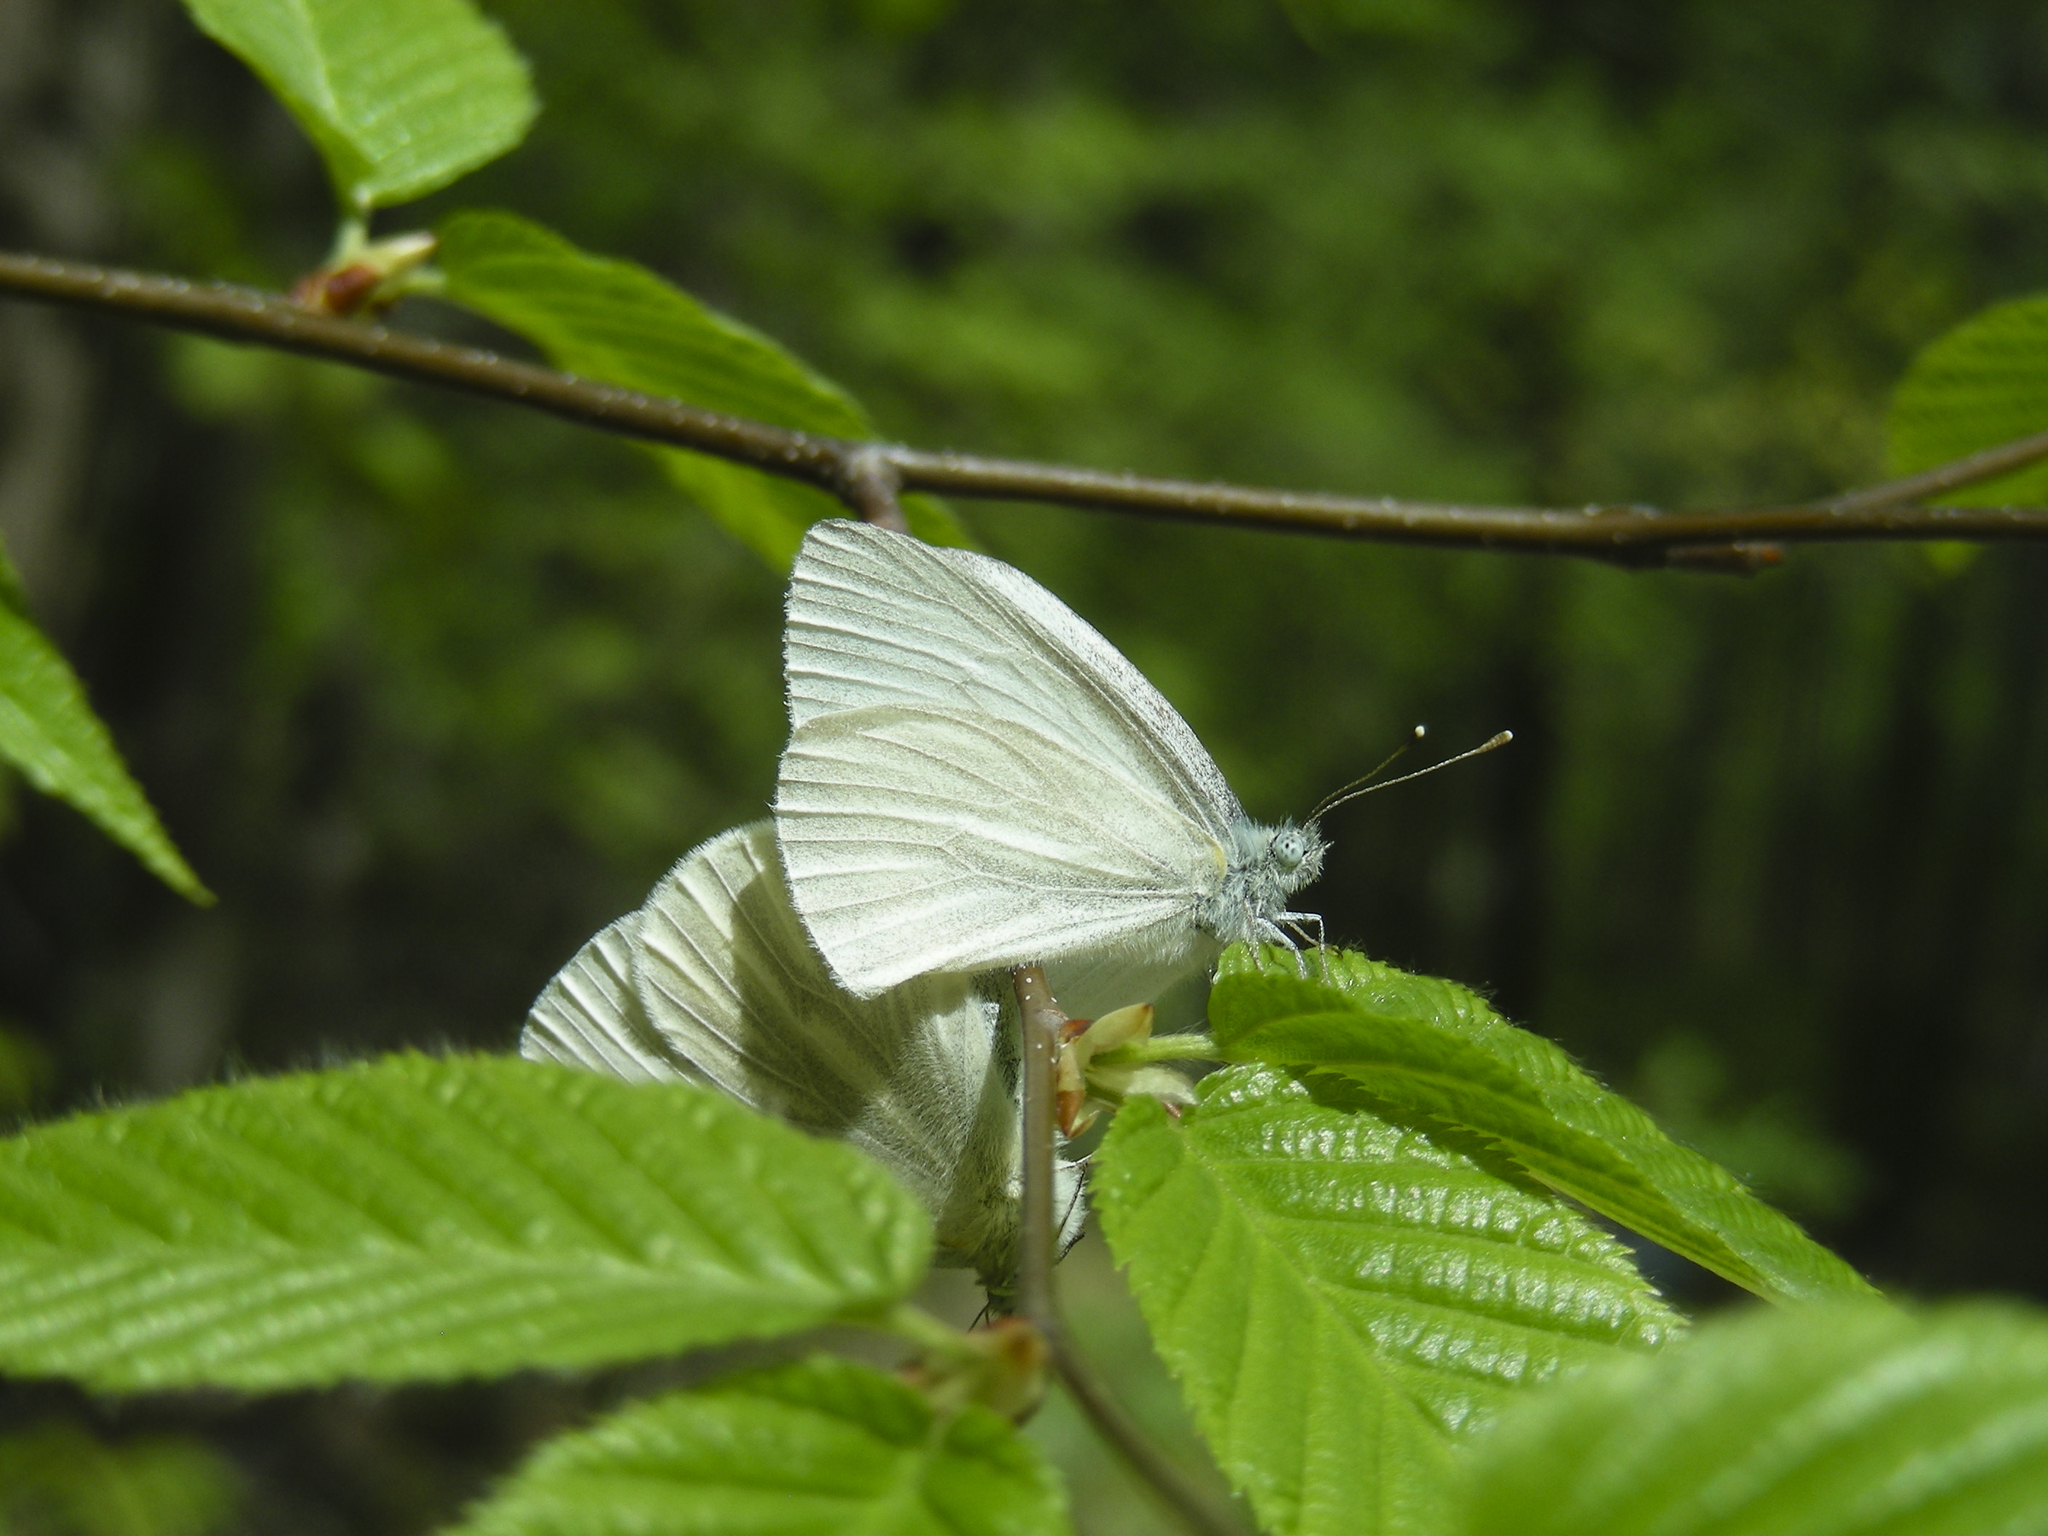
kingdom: Animalia
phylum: Arthropoda
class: Insecta
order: Lepidoptera
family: Pieridae
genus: Pieris
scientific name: Pieris virginiensis
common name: West virginia white
